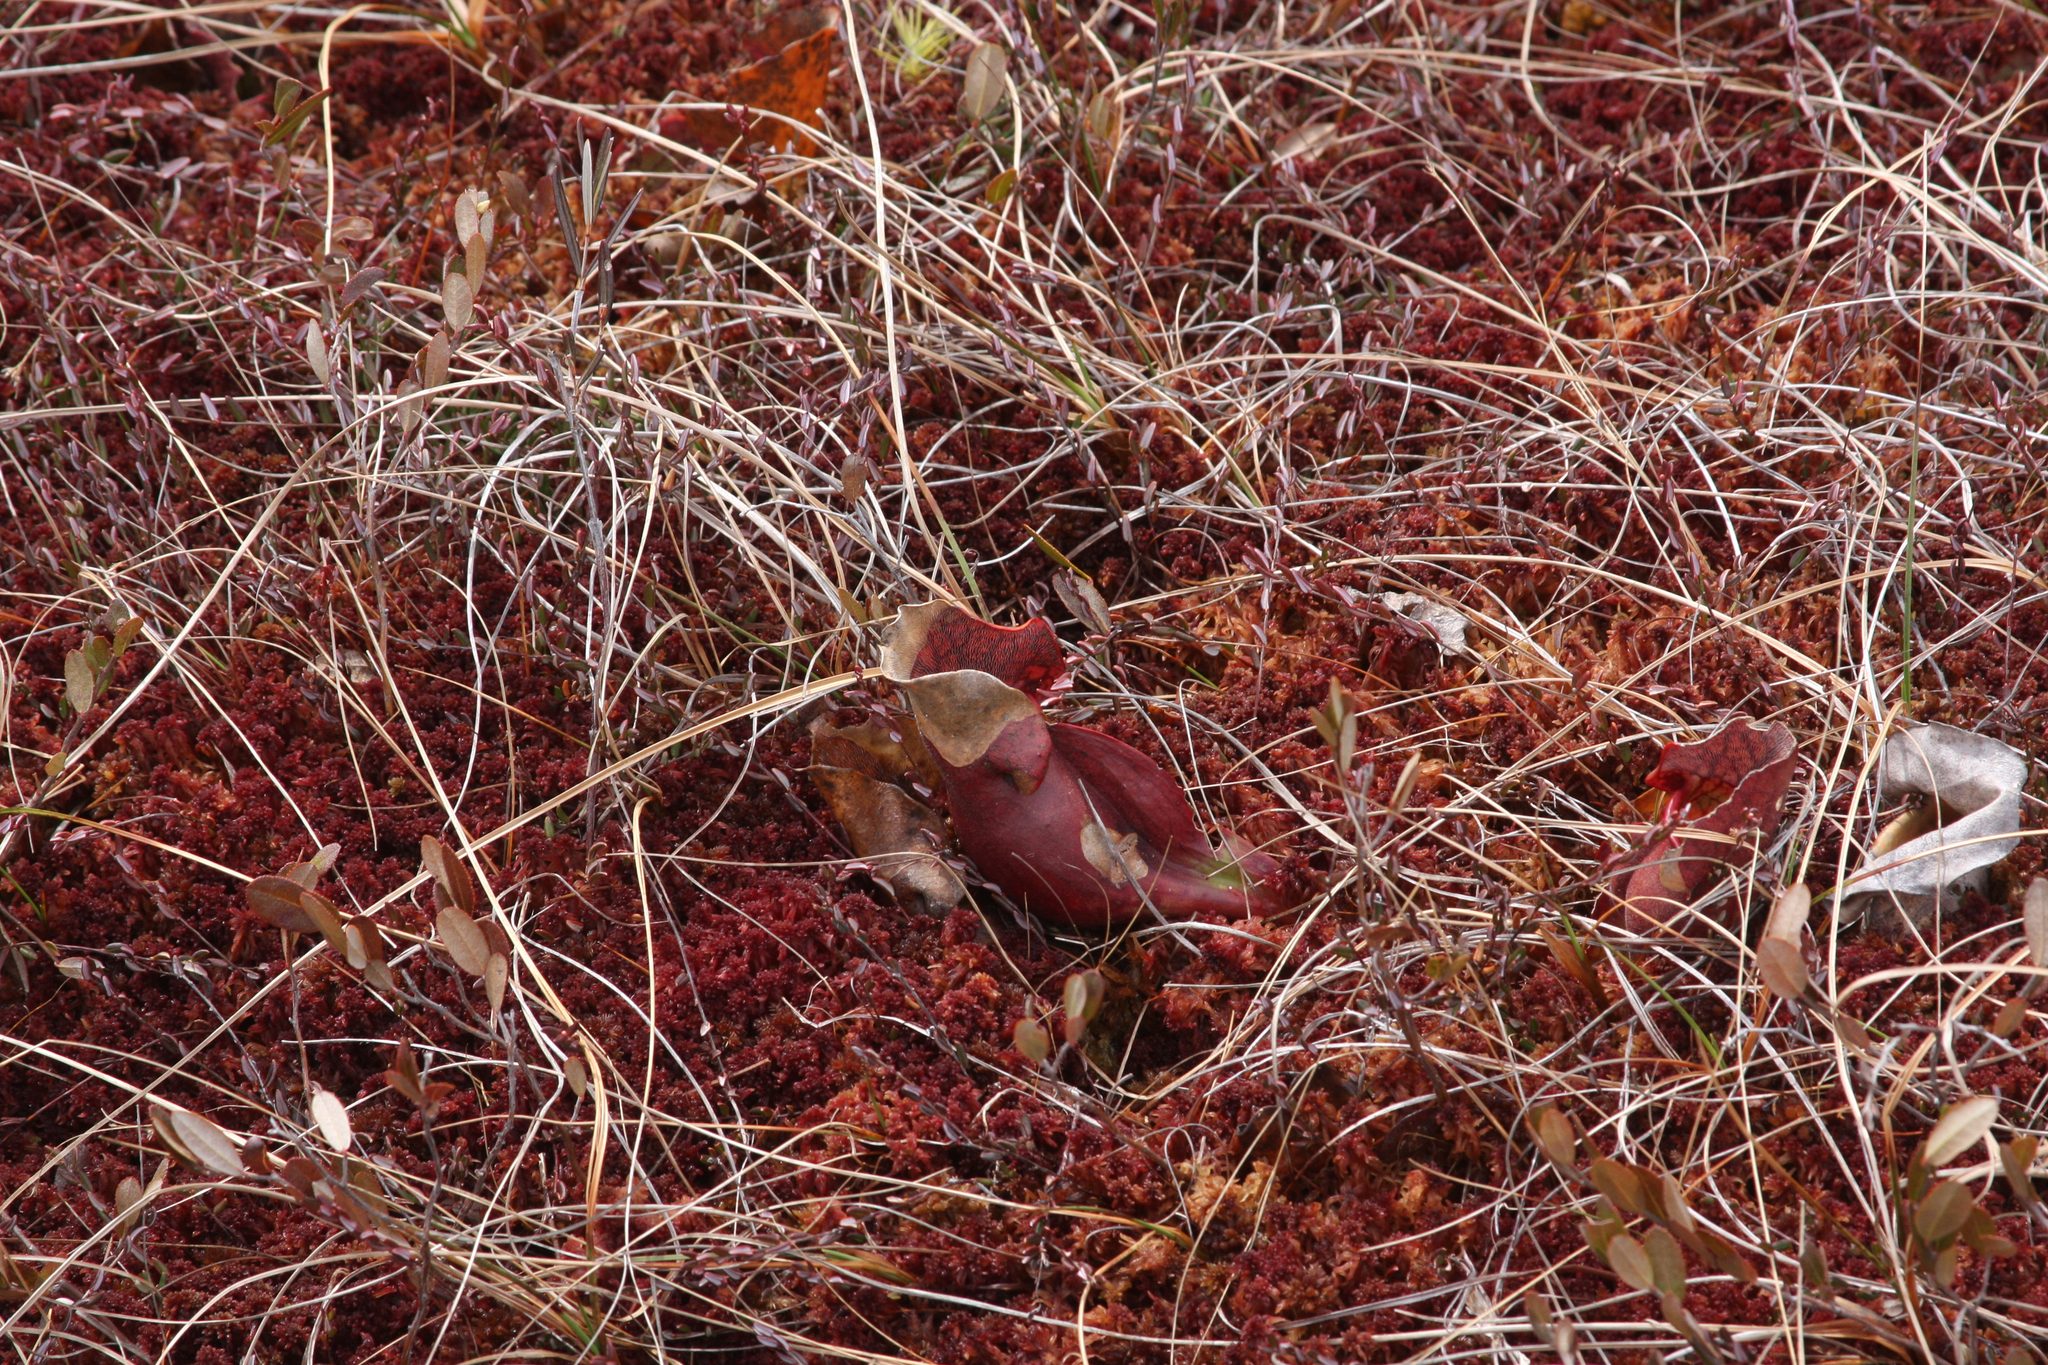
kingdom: Plantae
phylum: Tracheophyta
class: Magnoliopsida
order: Ericales
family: Sarraceniaceae
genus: Sarracenia
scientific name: Sarracenia purpurea
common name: Pitcherplant
